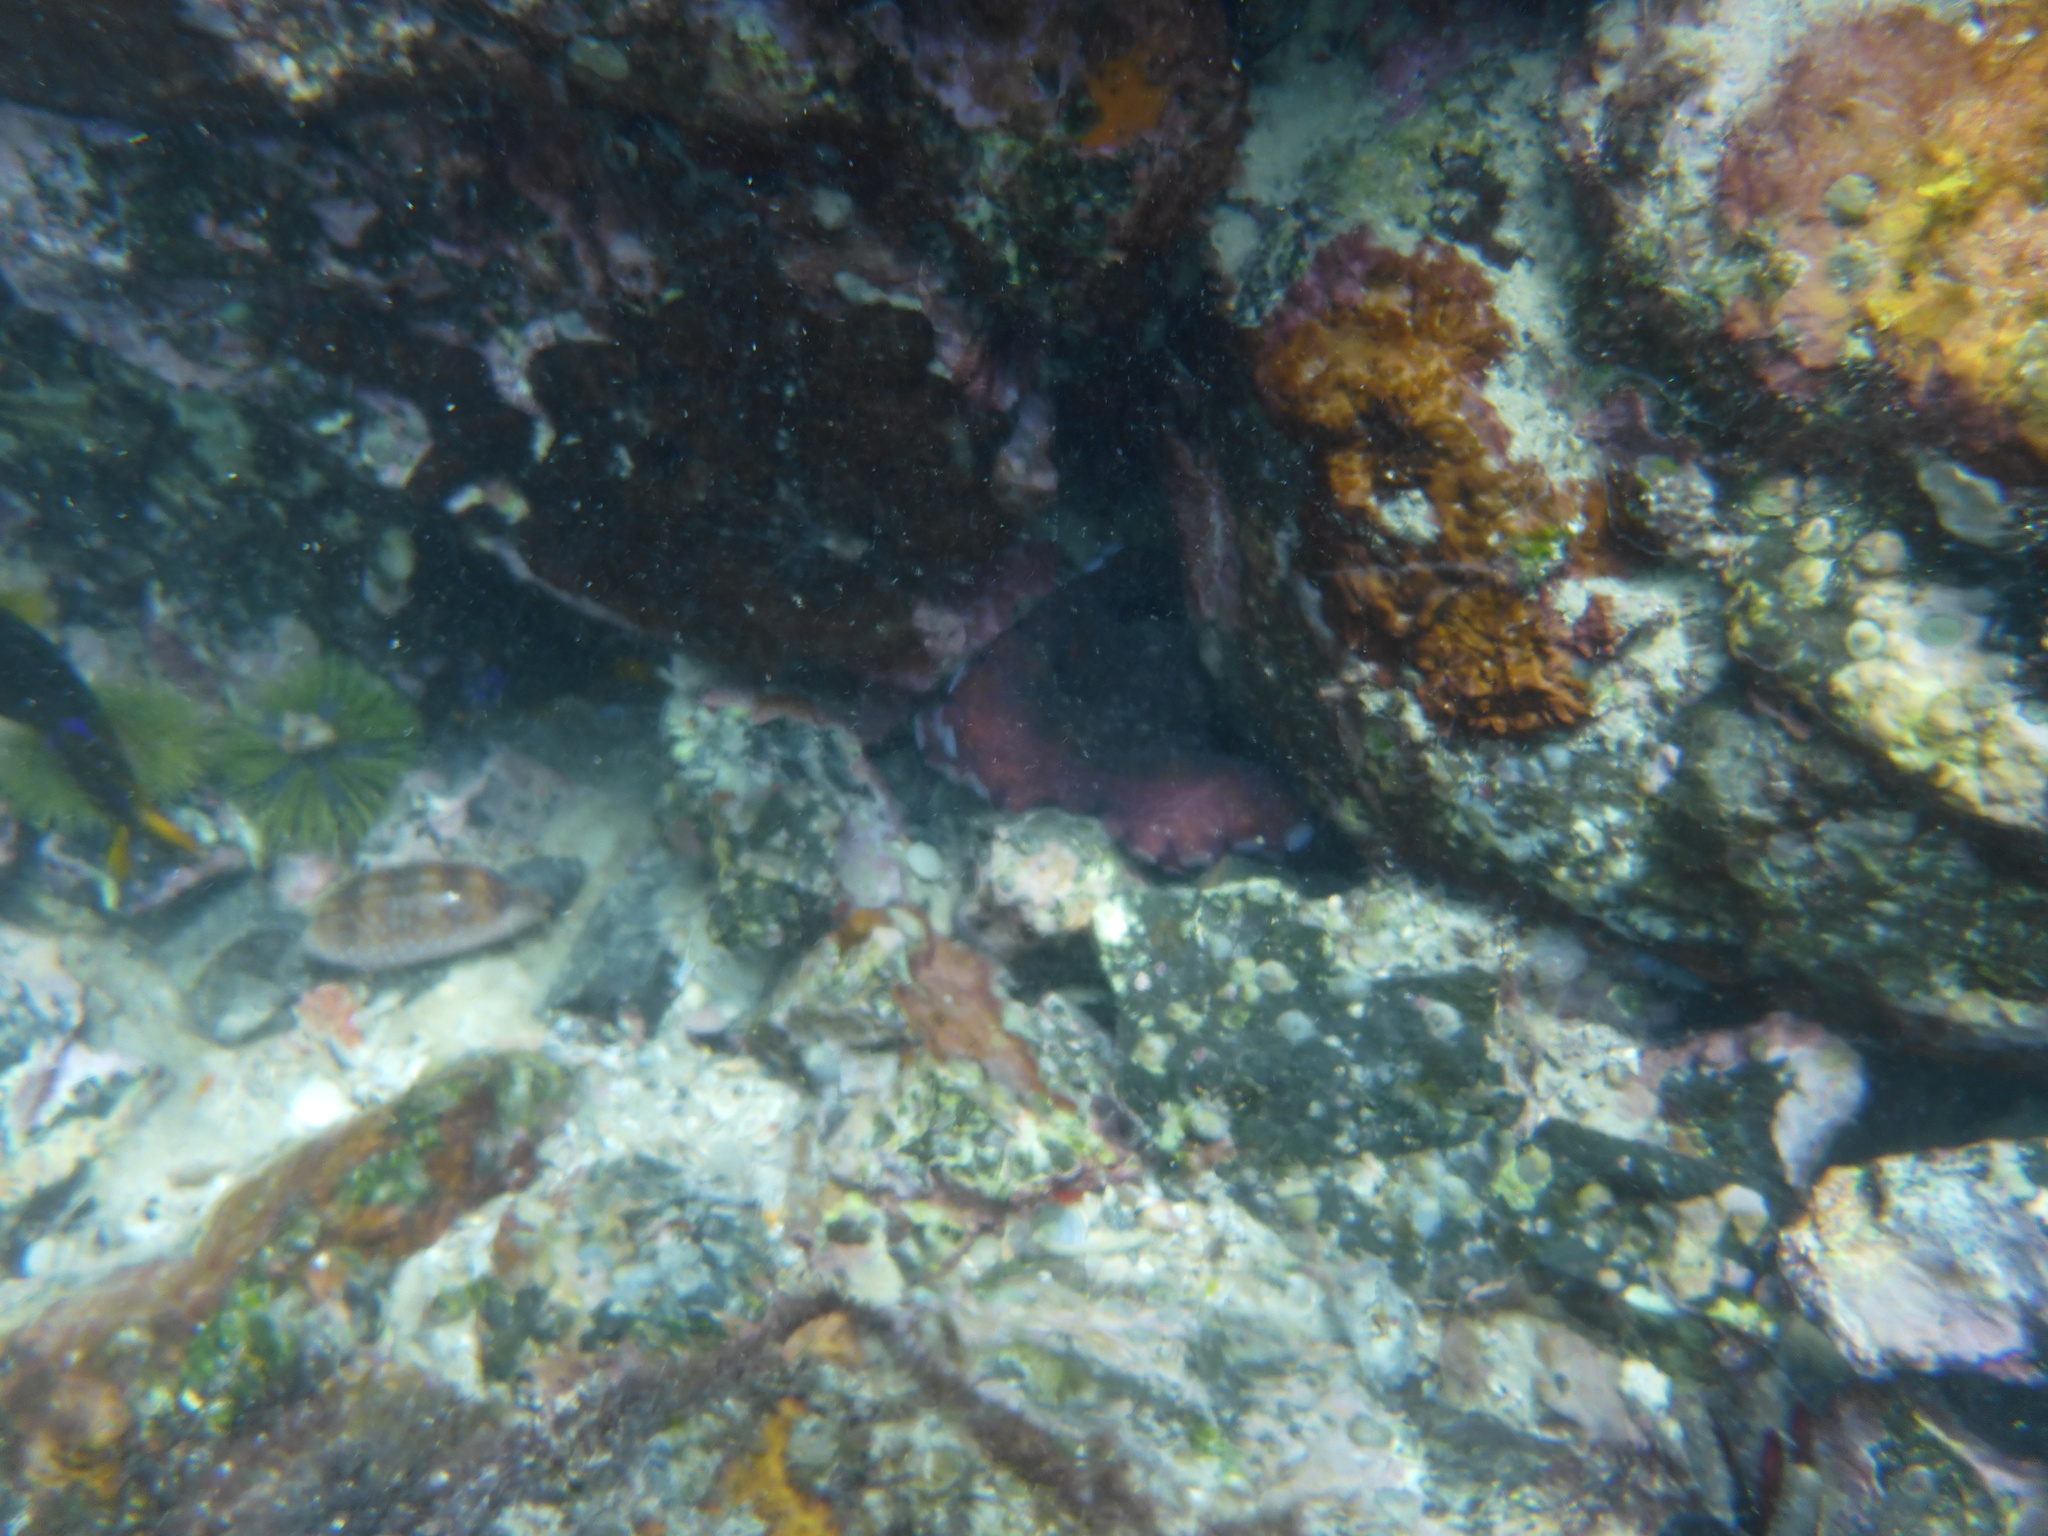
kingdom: Animalia
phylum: Mollusca
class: Cephalopoda
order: Octopoda
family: Octopodidae
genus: Octopus
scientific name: Octopus oculifer
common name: Reef octopus
